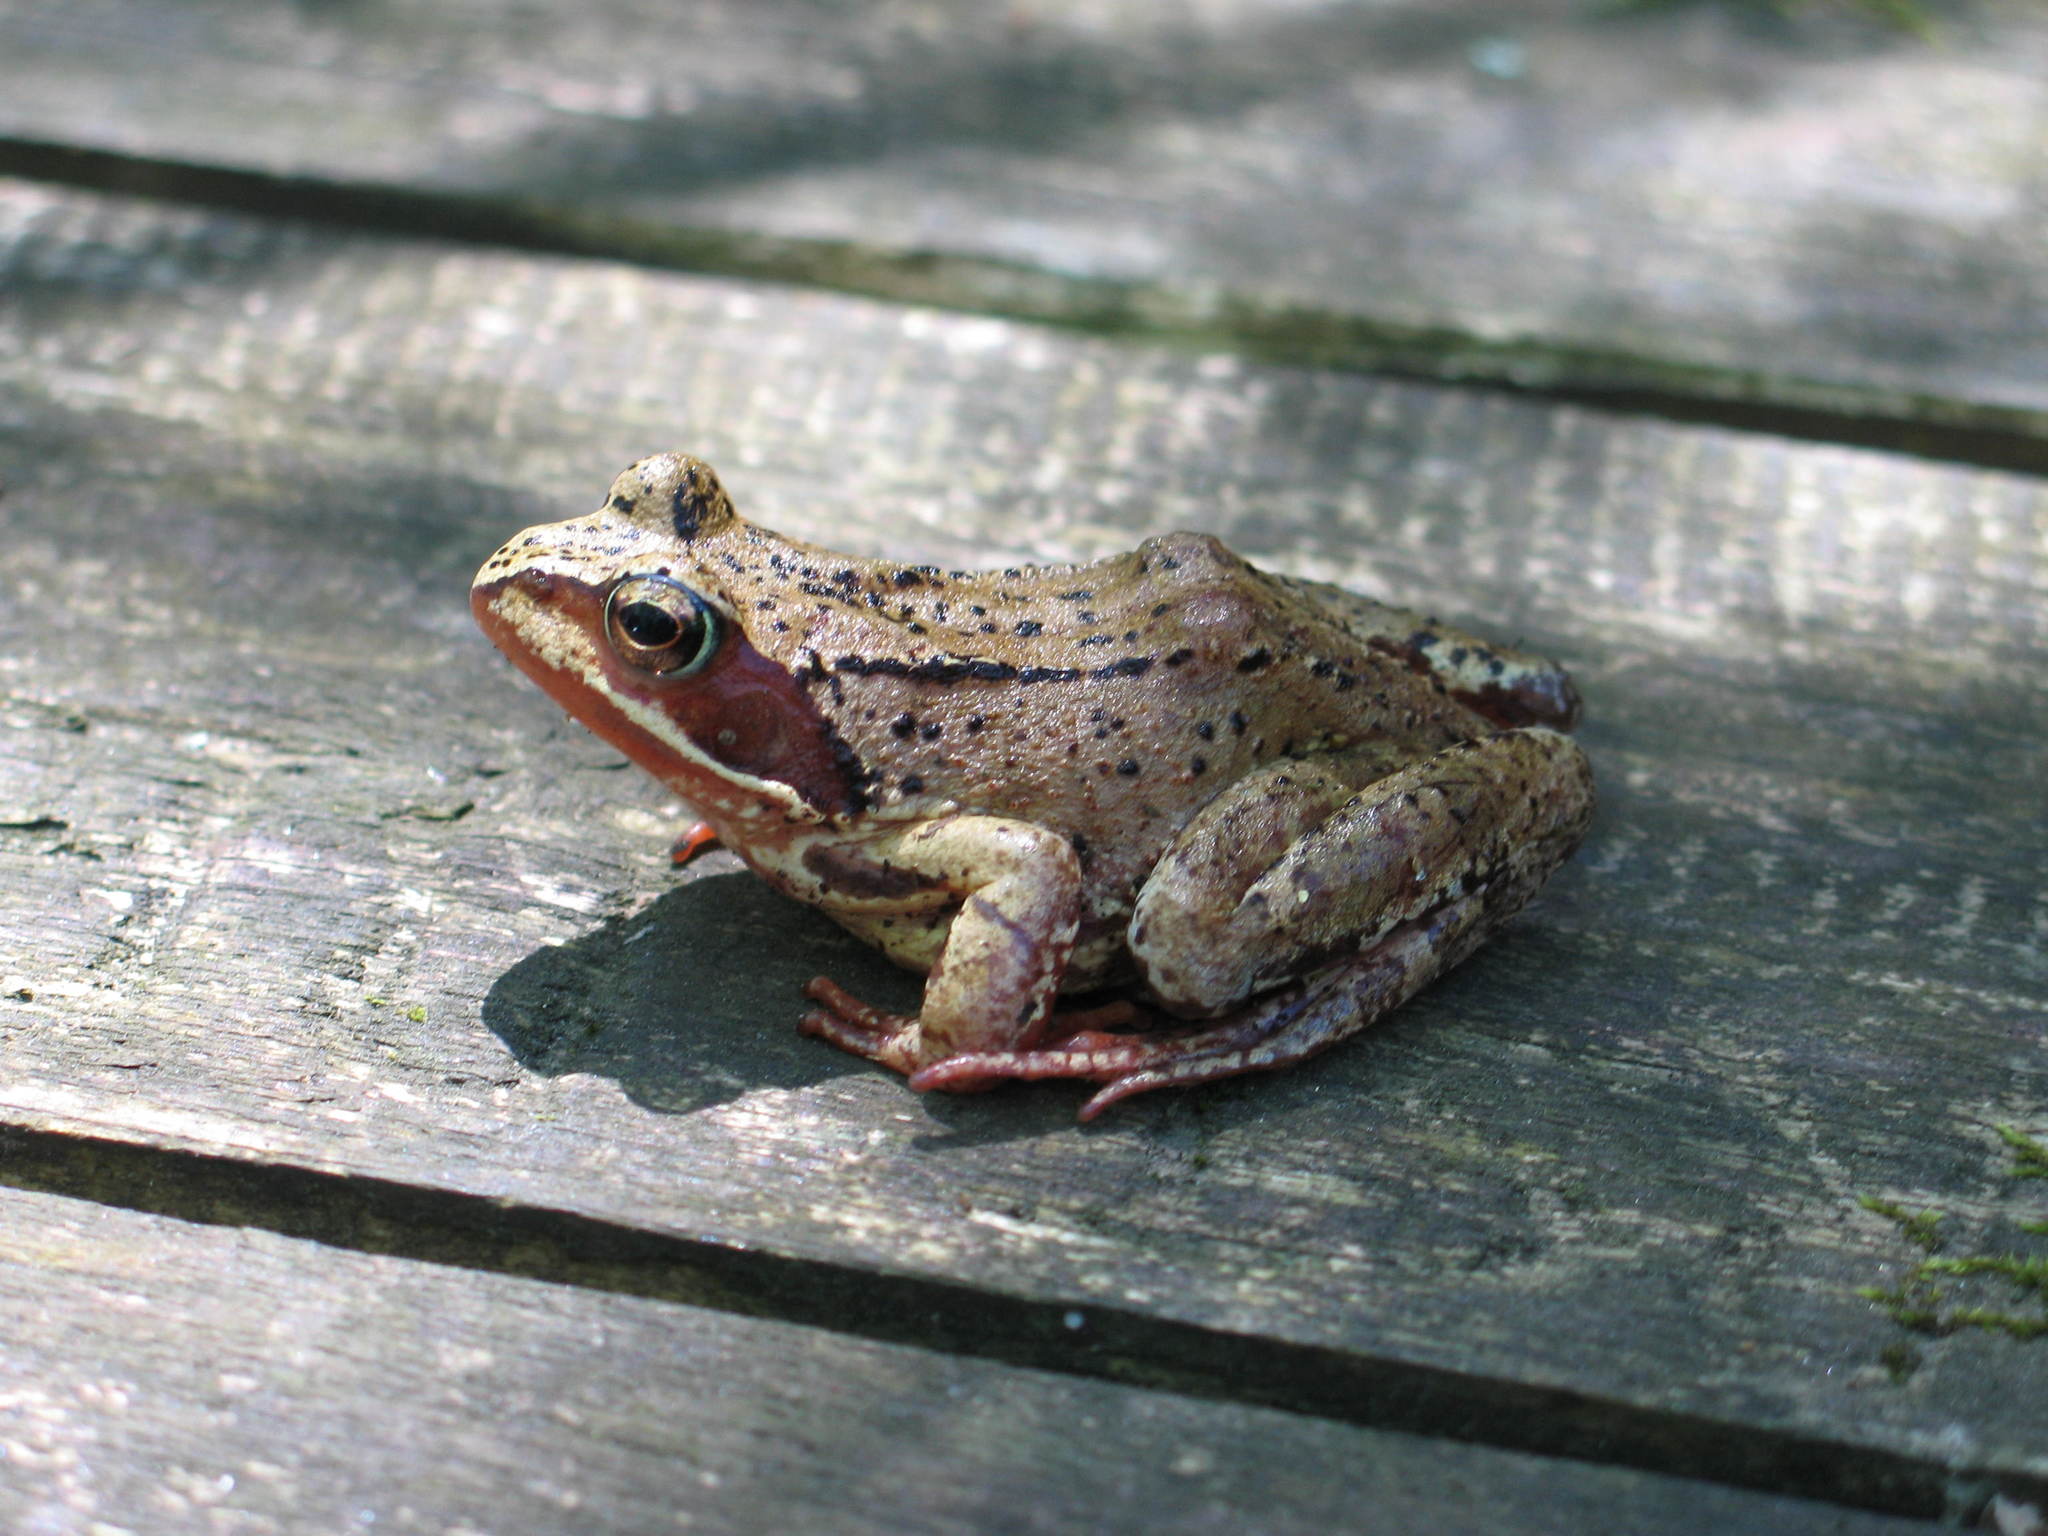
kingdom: Animalia
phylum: Chordata
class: Amphibia
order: Anura
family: Ranidae
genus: Rana
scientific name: Rana temporaria
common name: Common frog
